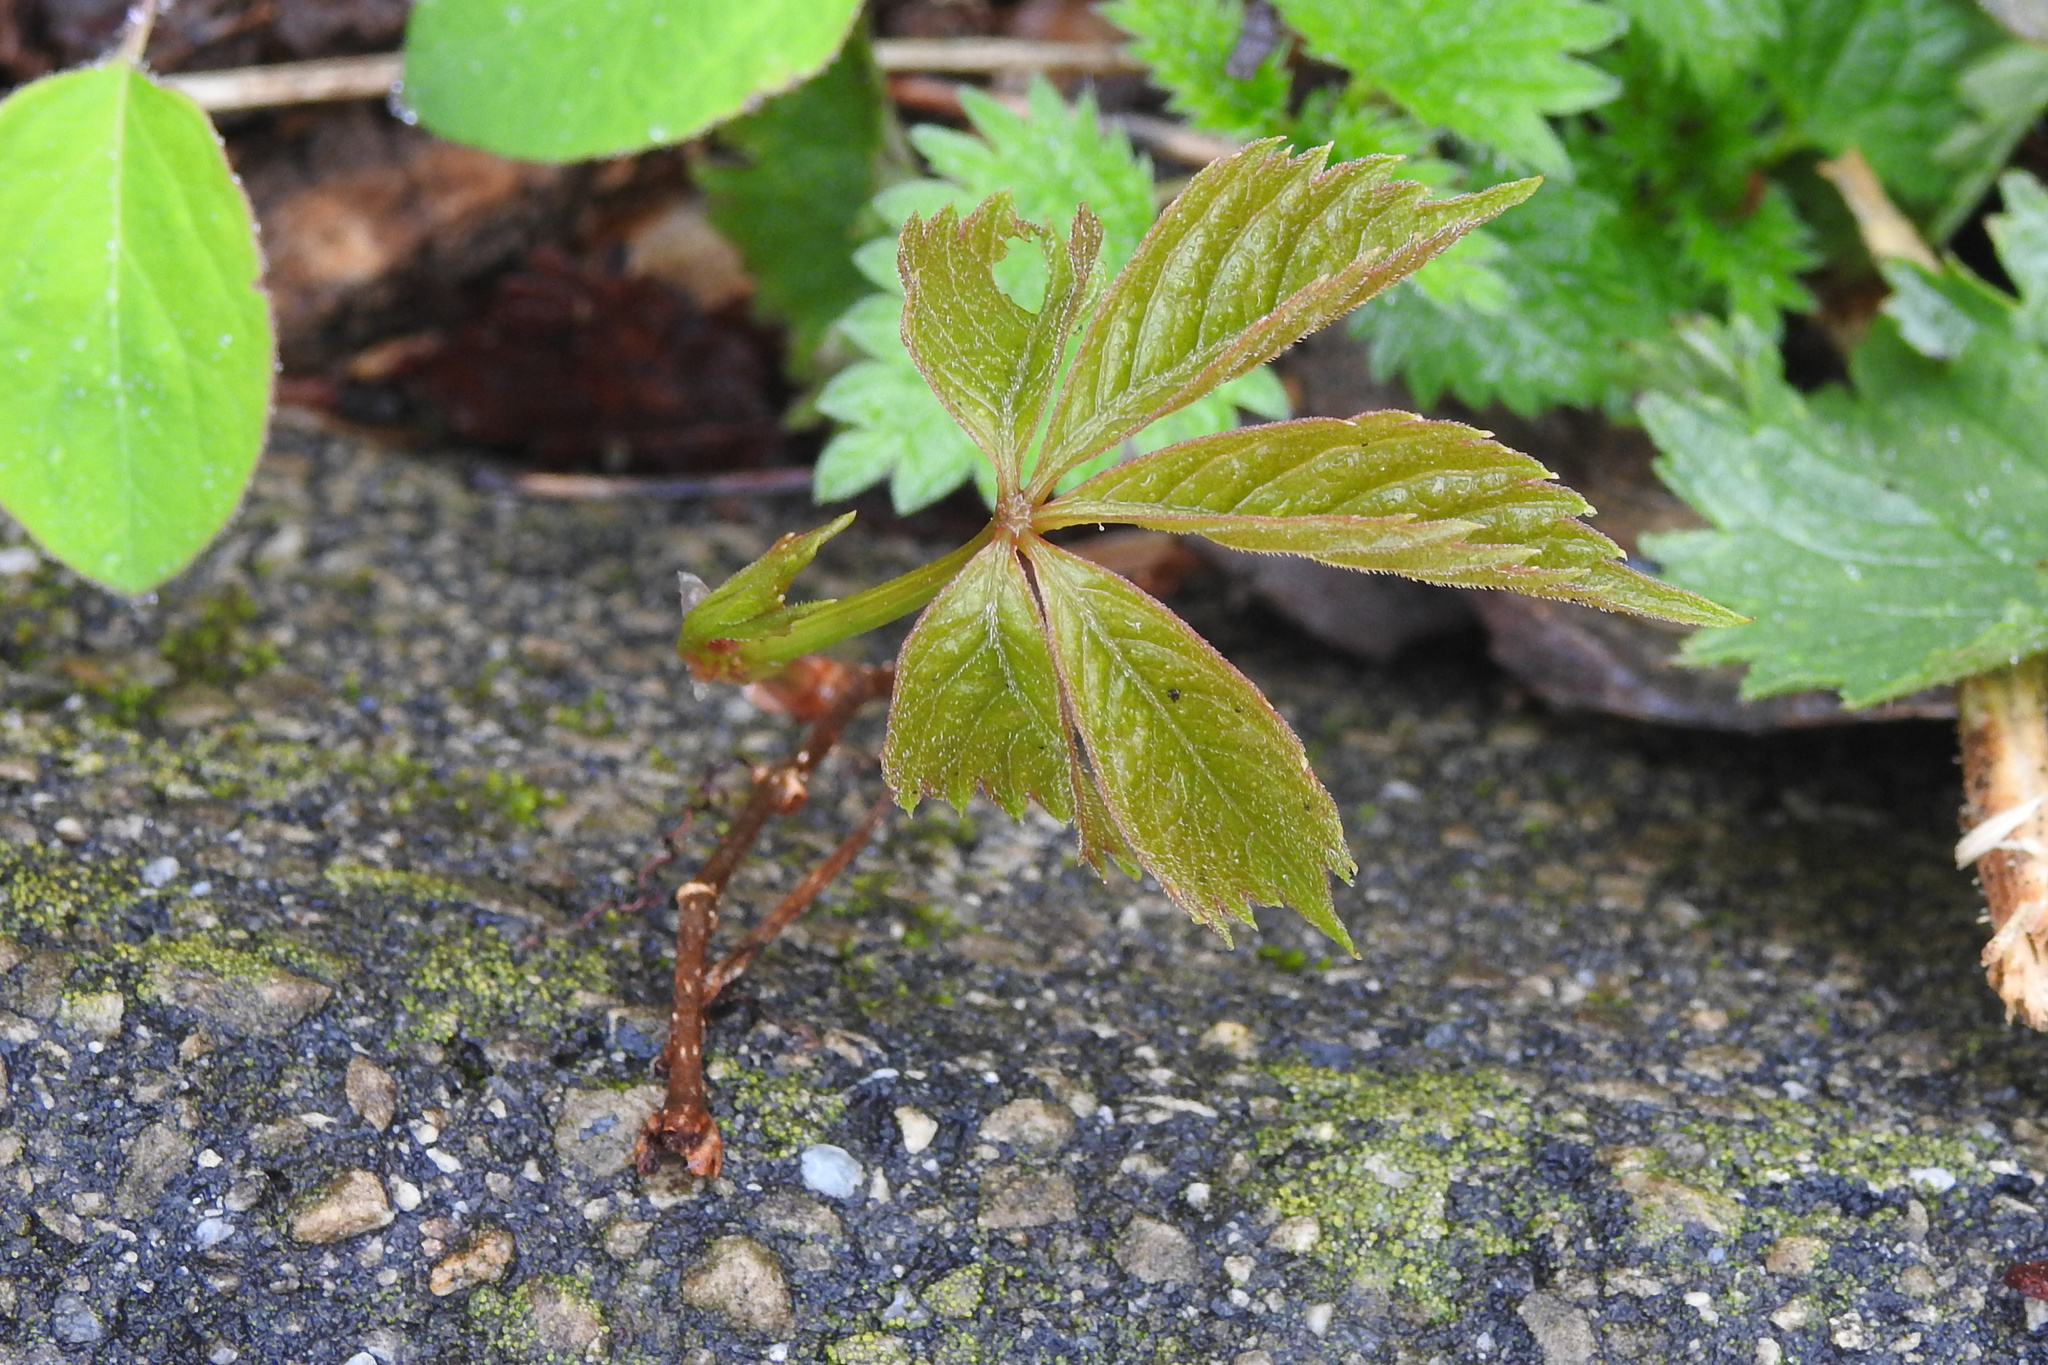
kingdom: Plantae
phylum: Tracheophyta
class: Magnoliopsida
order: Vitales
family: Vitaceae
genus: Parthenocissus
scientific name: Parthenocissus quinquefolia
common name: Virginia-creeper
